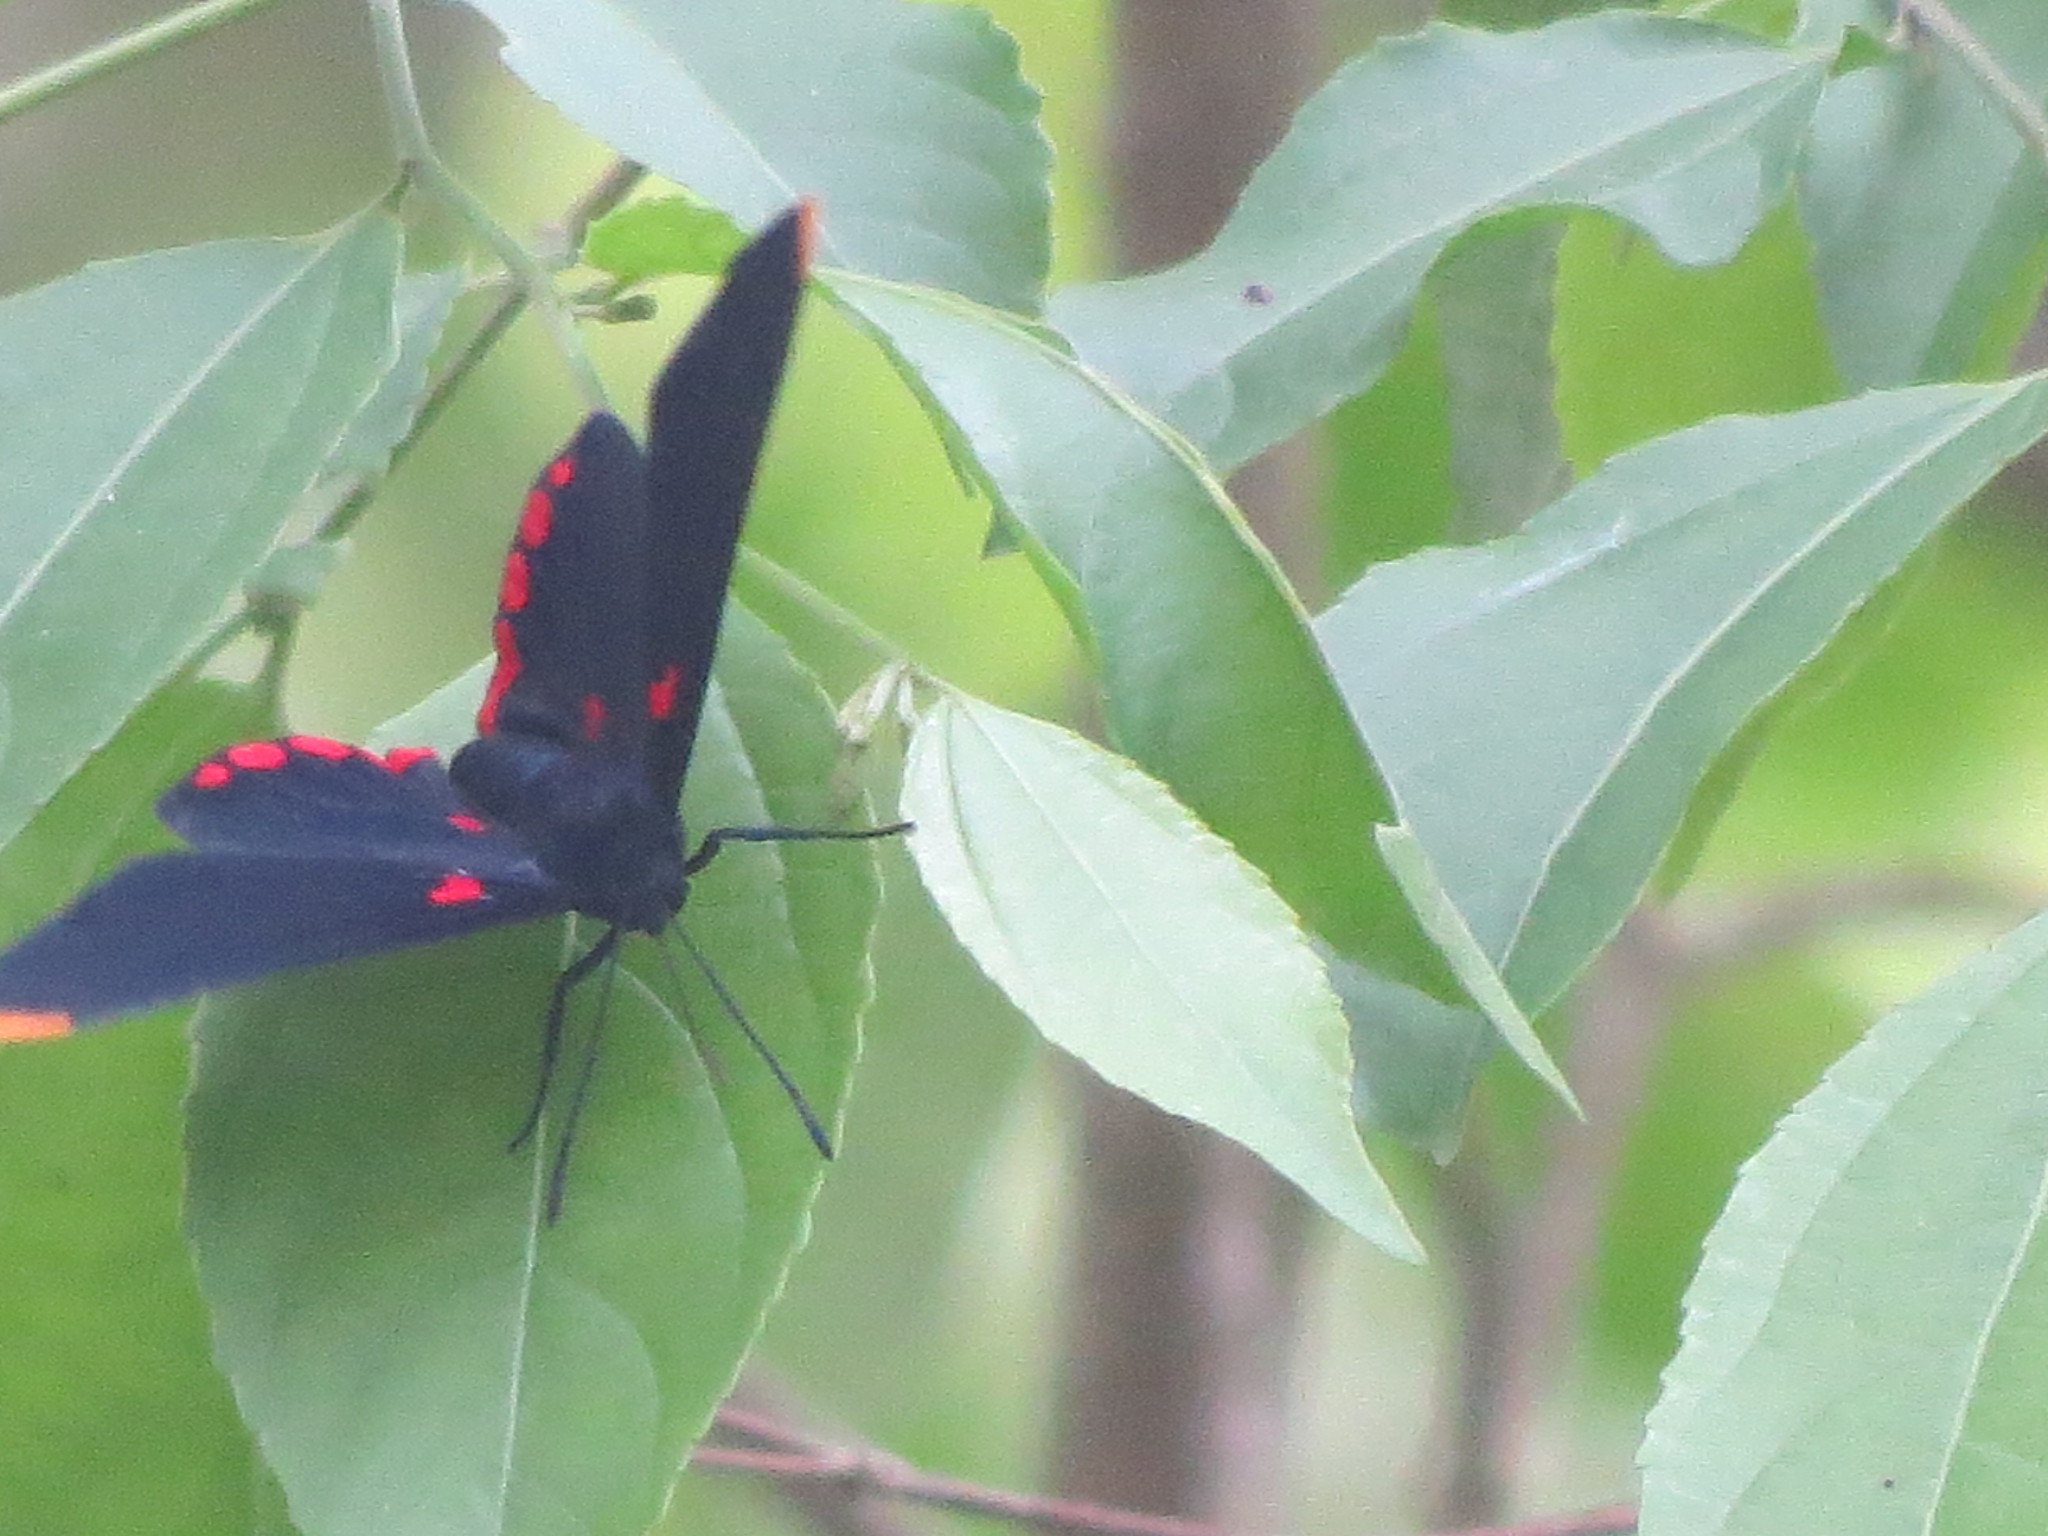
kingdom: Animalia
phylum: Arthropoda
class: Insecta
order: Lepidoptera
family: Lycaenidae
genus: Melanis
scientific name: Melanis pixe
